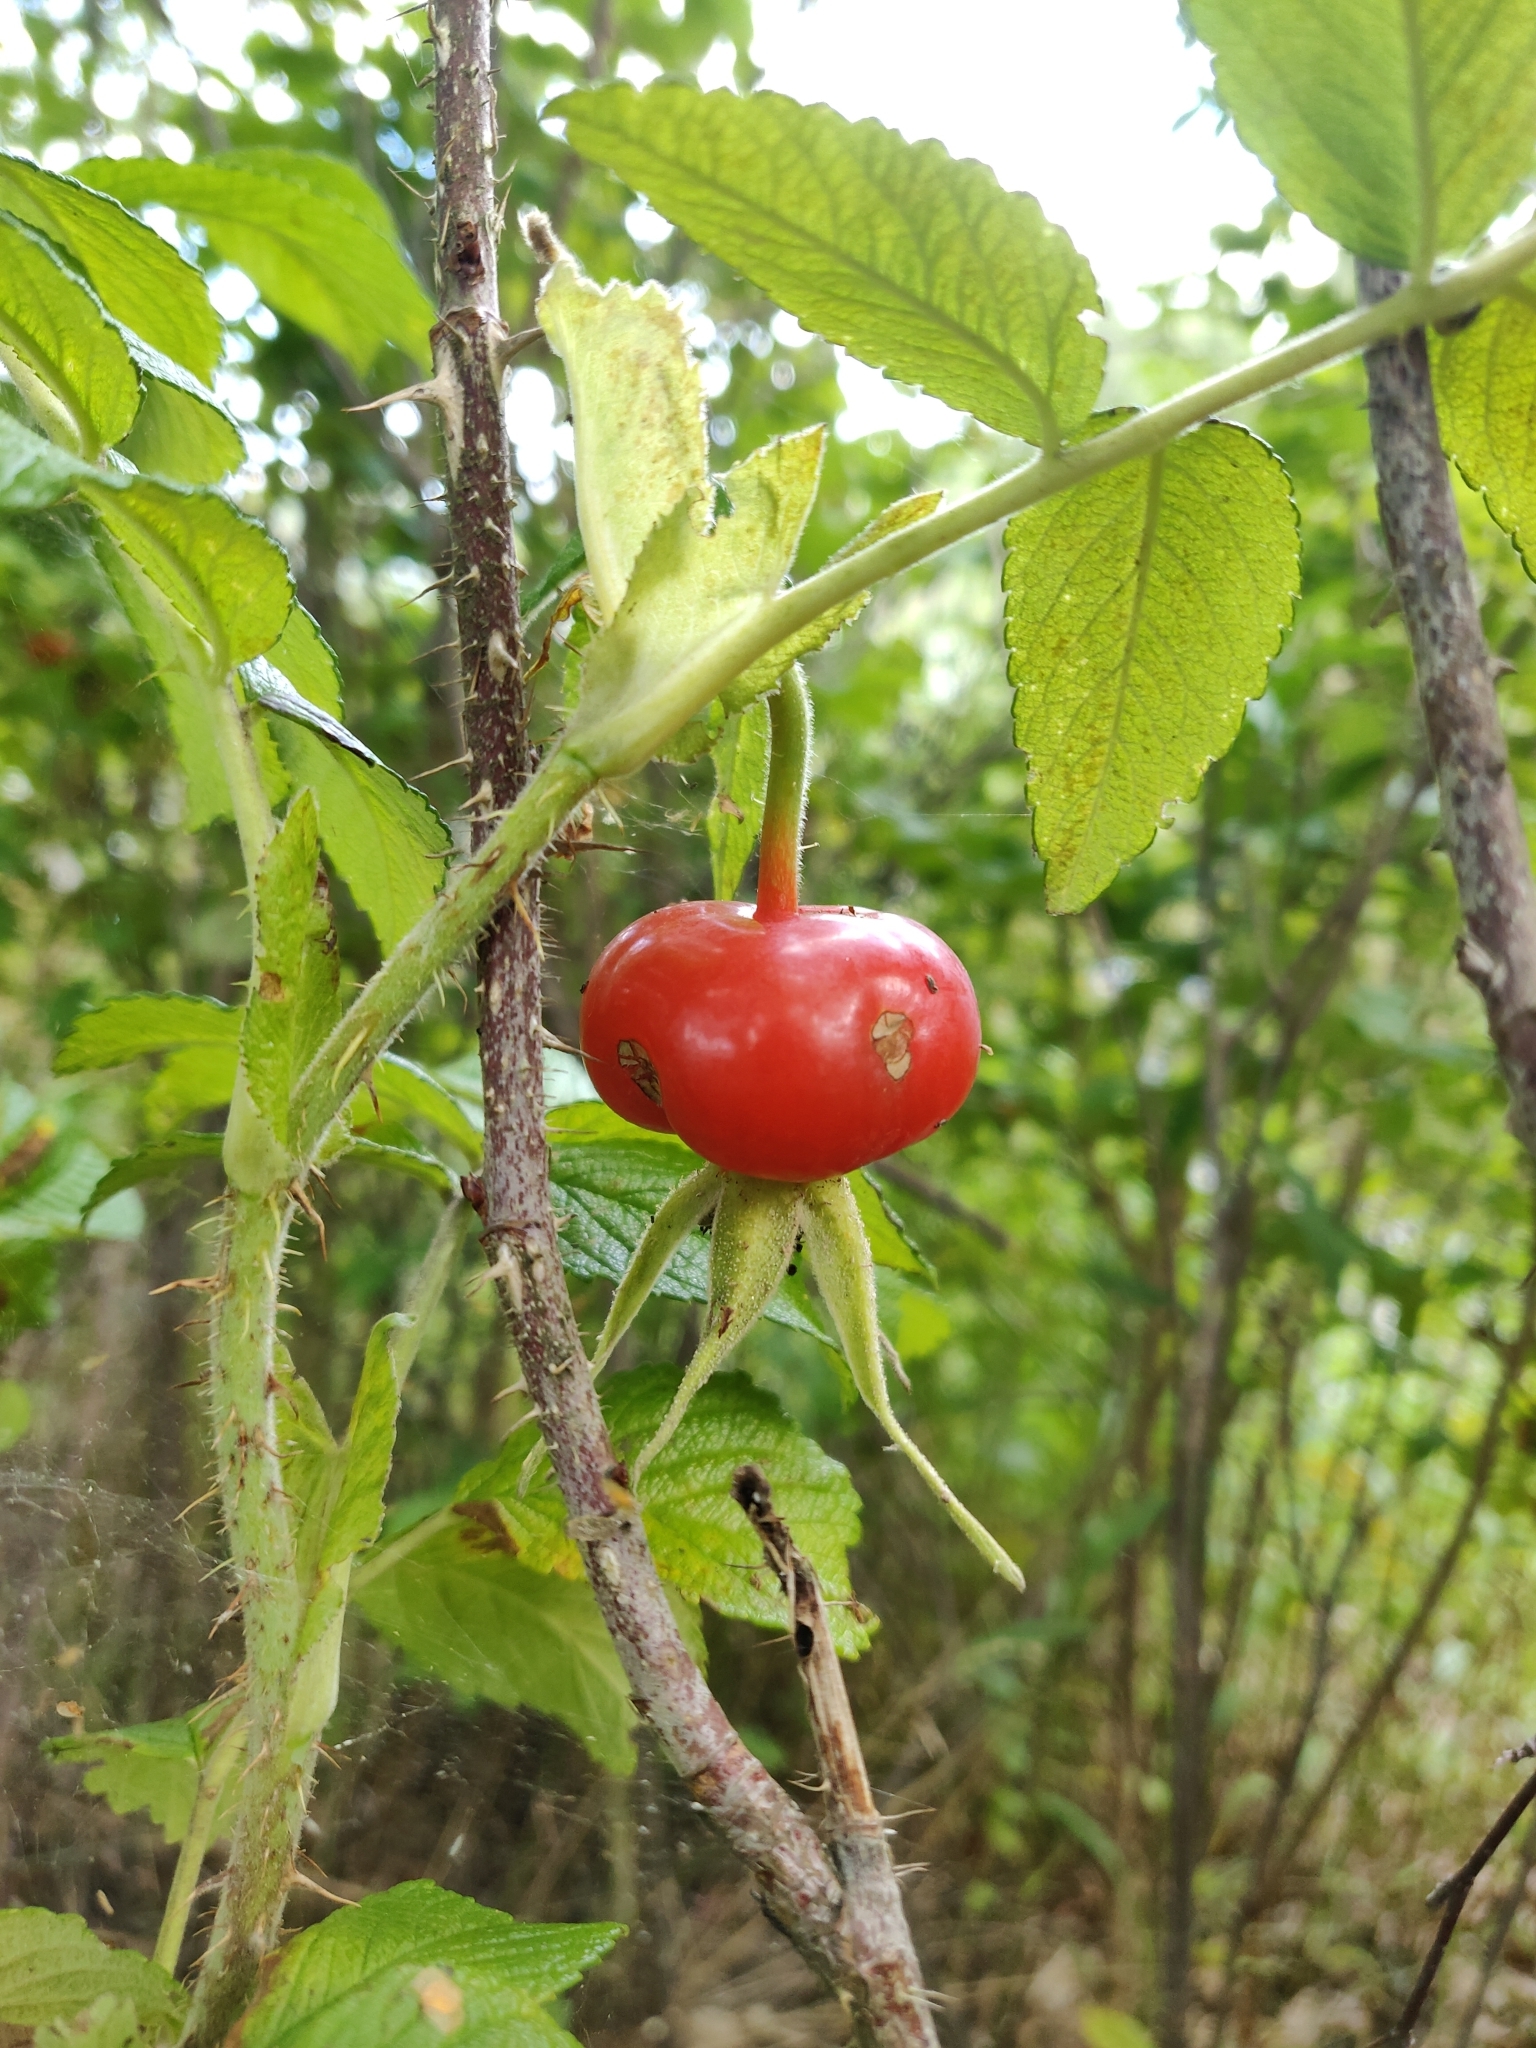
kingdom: Plantae
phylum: Tracheophyta
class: Magnoliopsida
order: Rosales
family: Rosaceae
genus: Rosa
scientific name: Rosa rugosa
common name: Japanese rose
